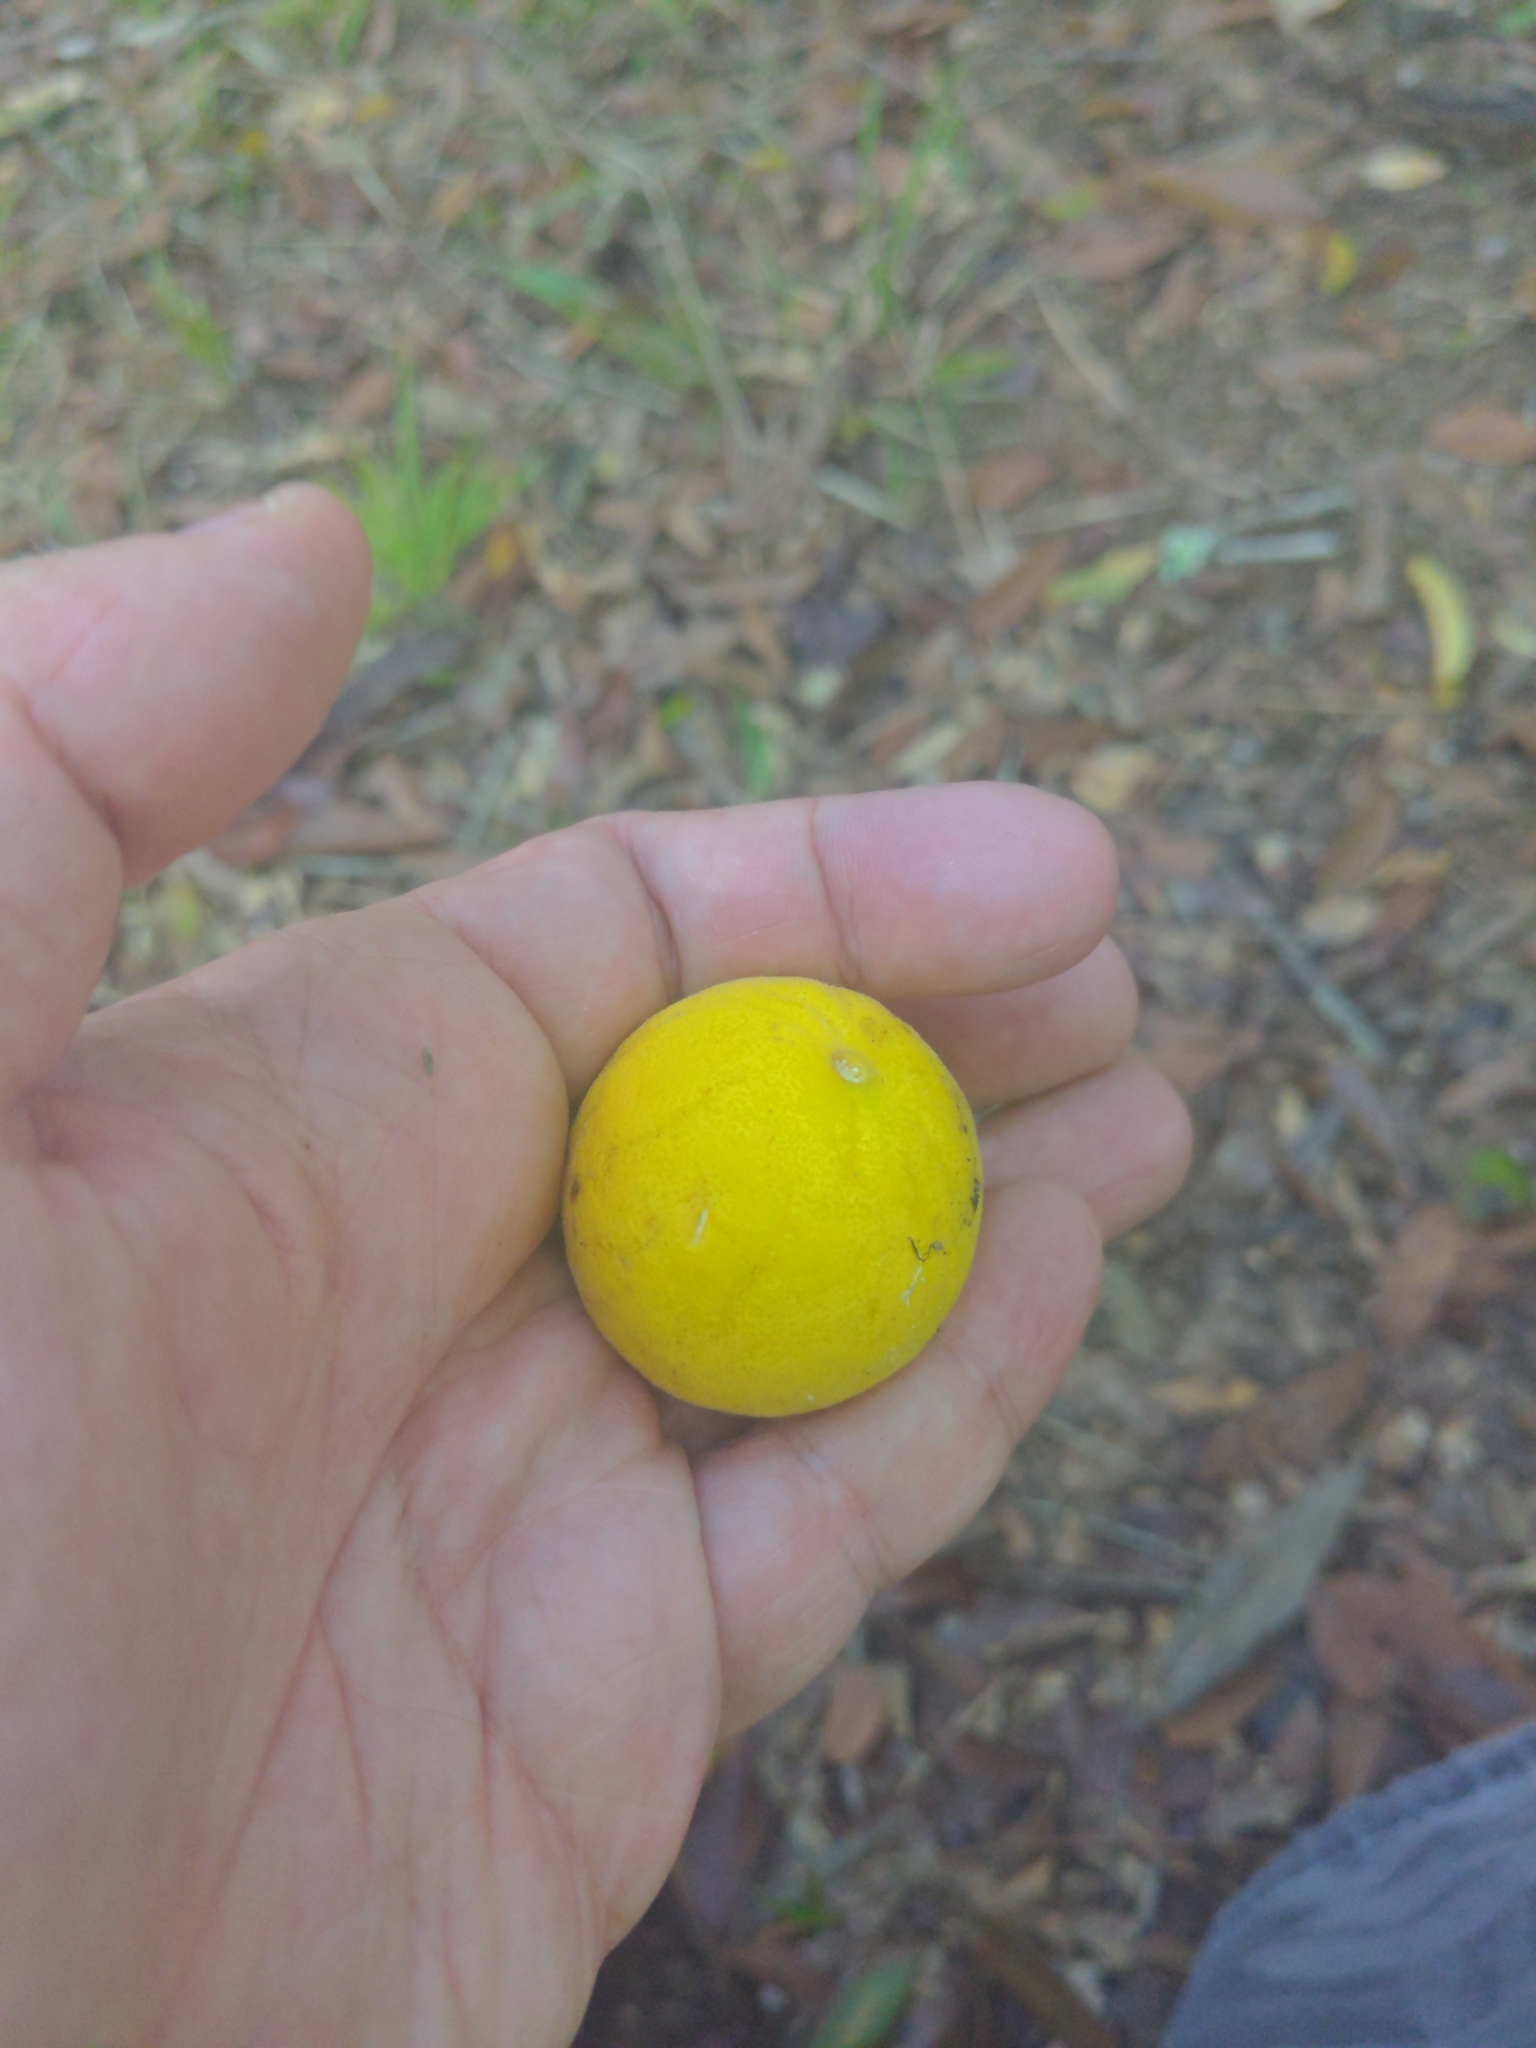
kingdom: Plantae
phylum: Tracheophyta
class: Magnoliopsida
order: Sapindales
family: Rutaceae
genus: Citrus
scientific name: Citrus trifoliata
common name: Japanese bitter-orange
